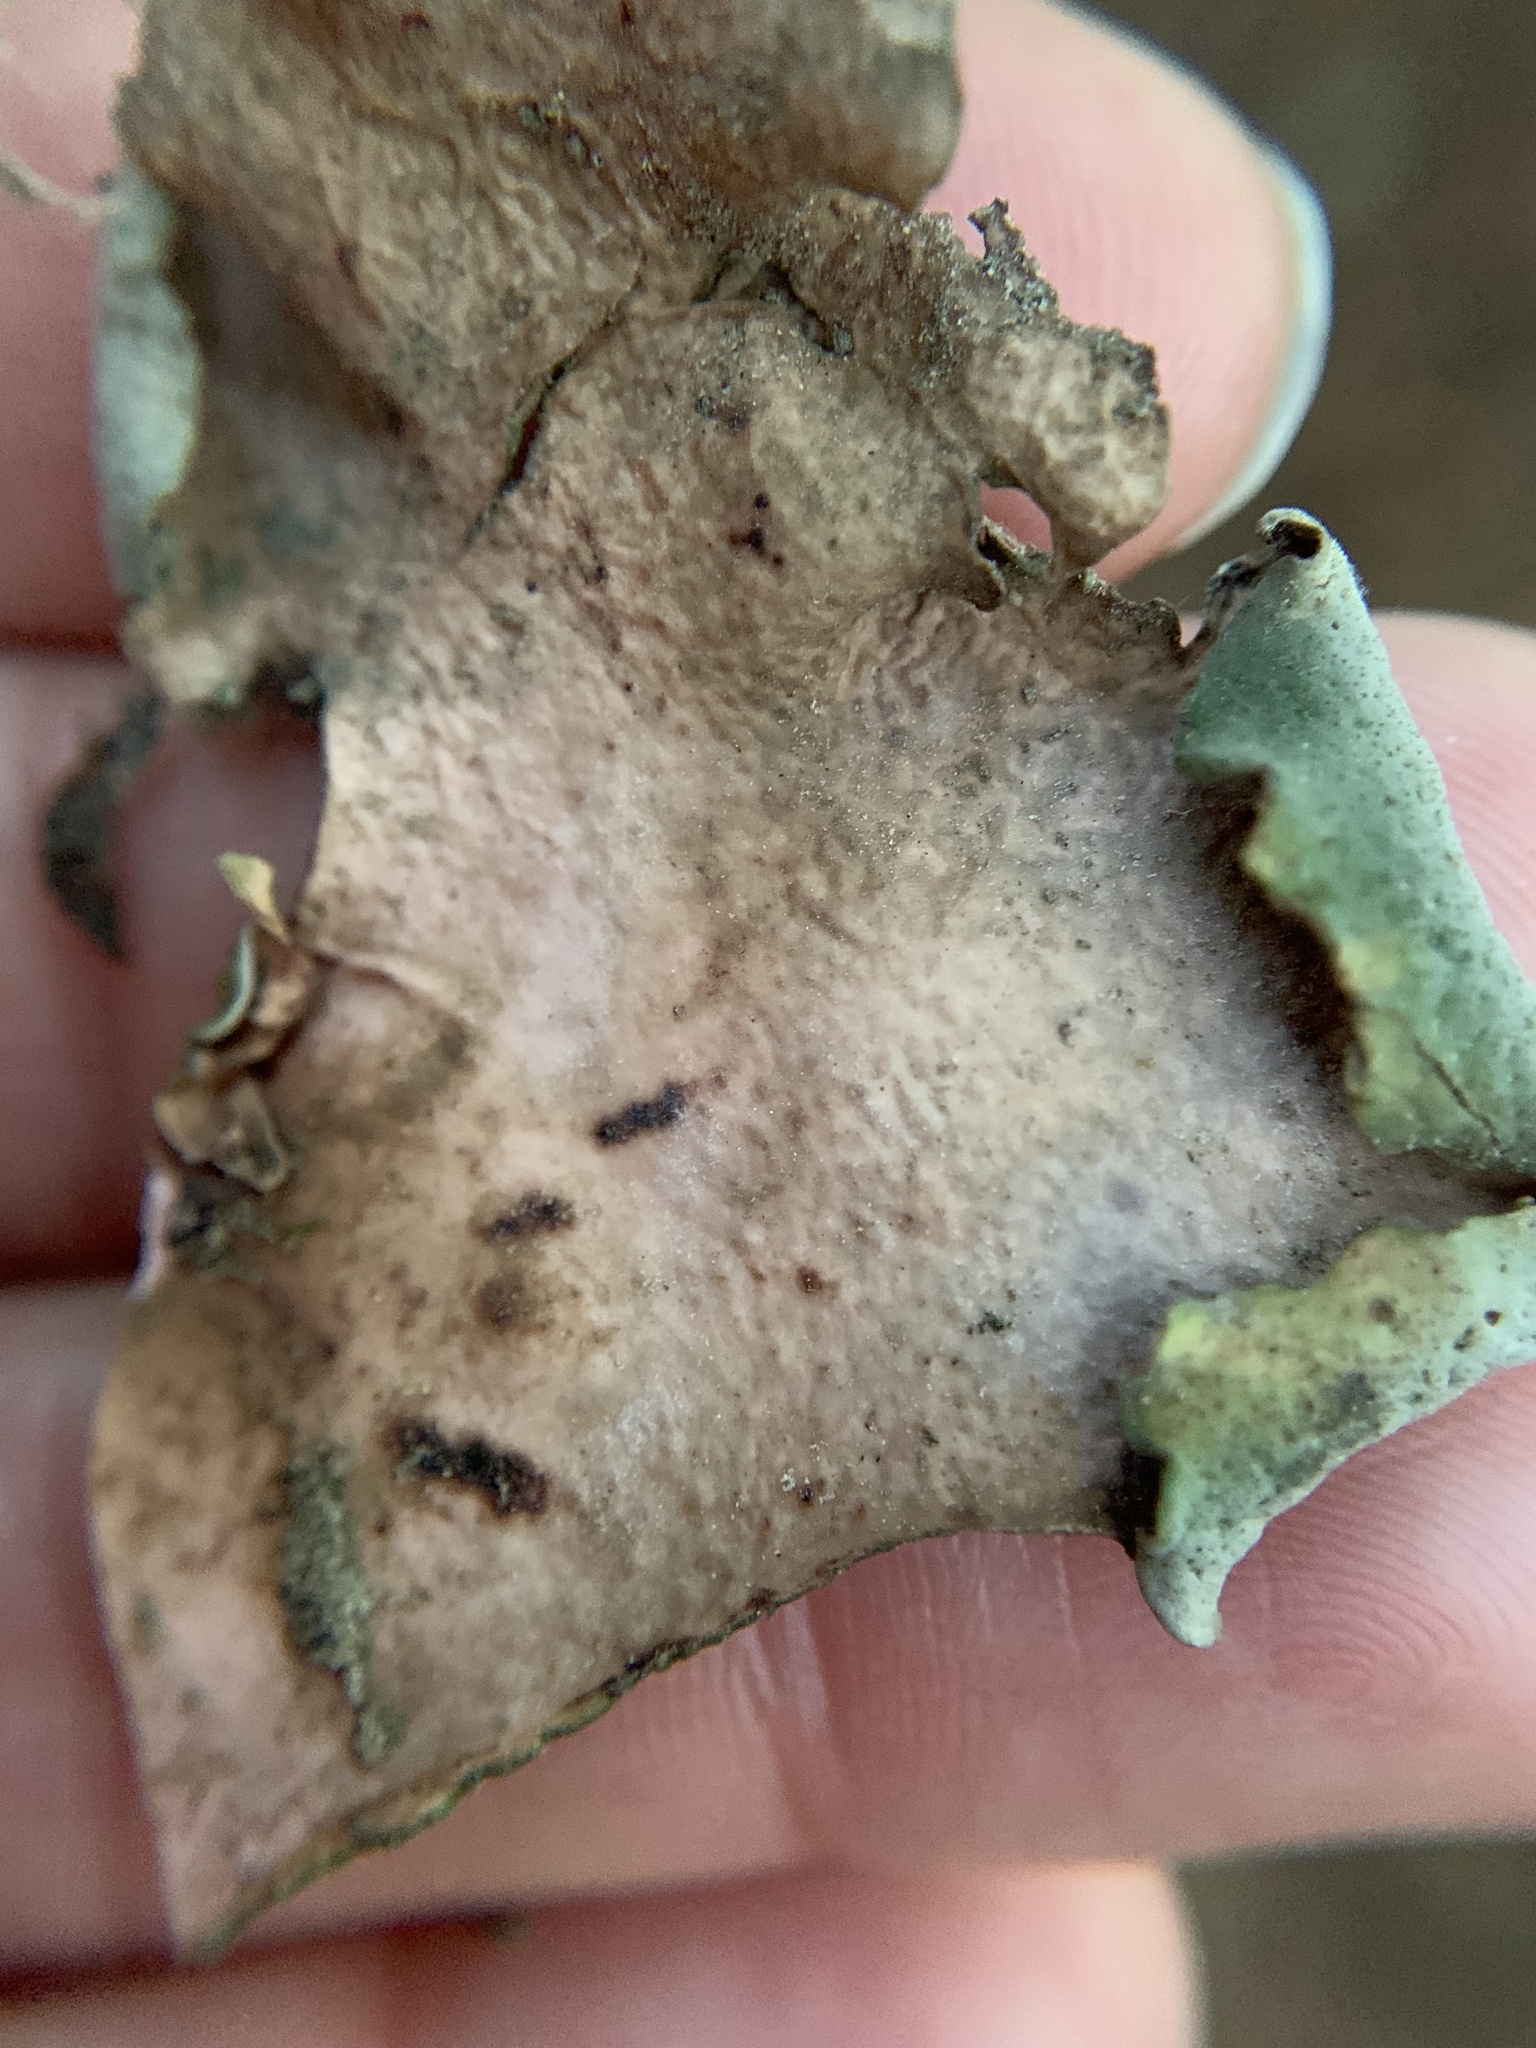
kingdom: Fungi
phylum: Ascomycota
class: Eurotiomycetes
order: Verrucariales
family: Verrucariaceae
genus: Dermatocarpon
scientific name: Dermatocarpon miniatum
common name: Leather lichen
